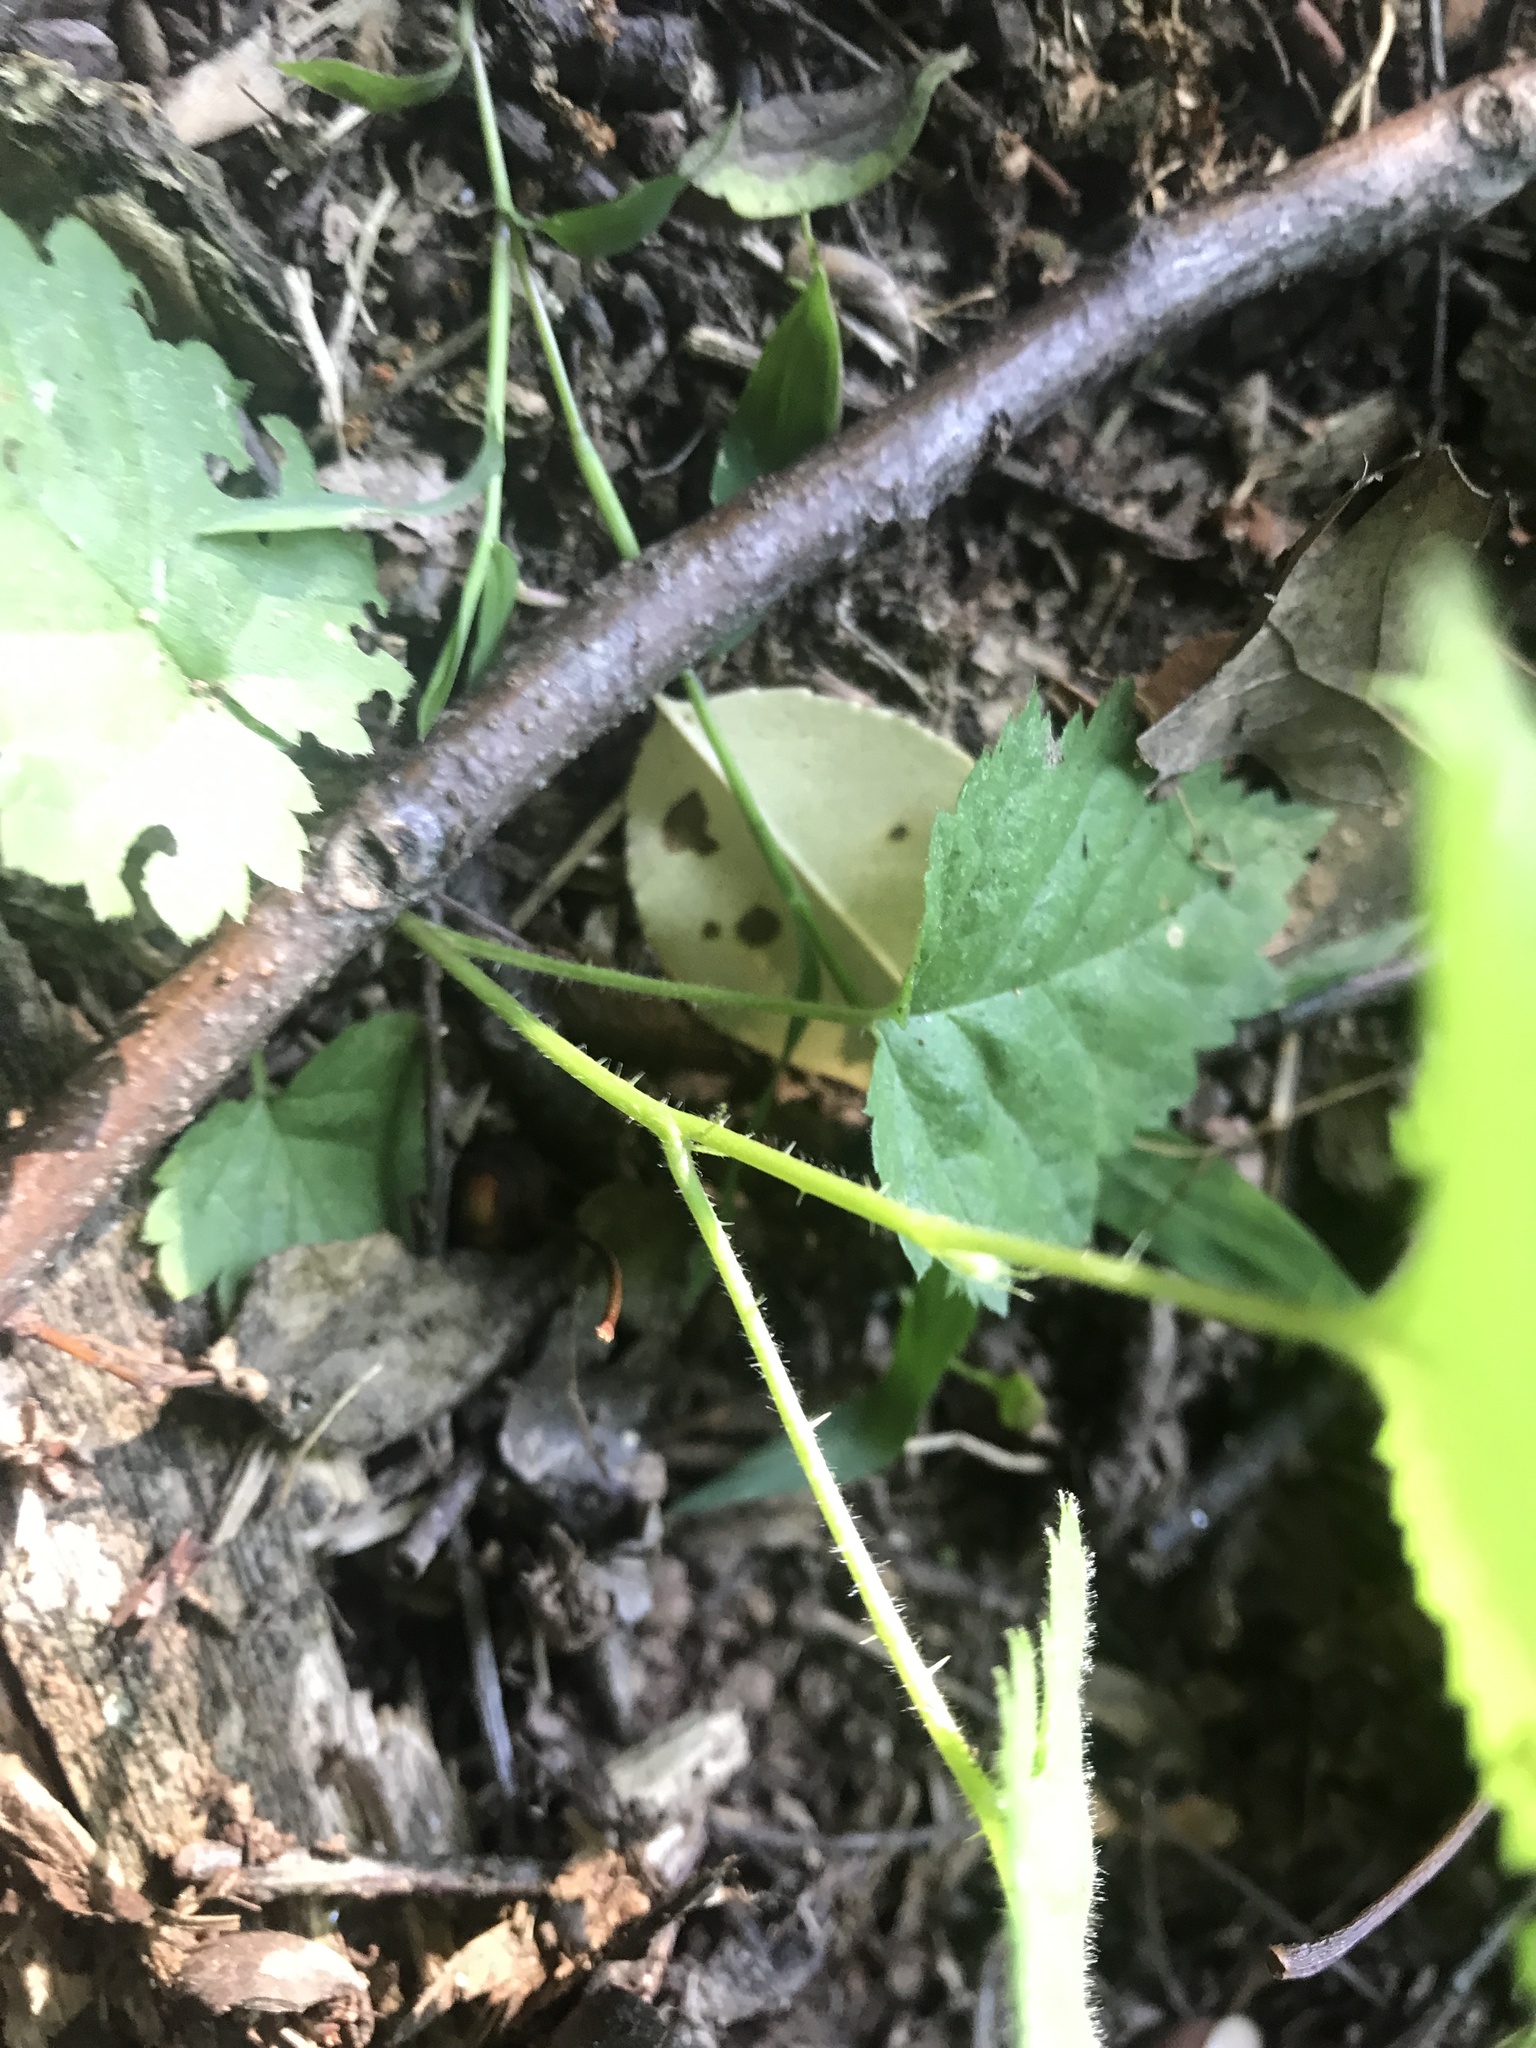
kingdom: Plantae
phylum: Tracheophyta
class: Magnoliopsida
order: Rosales
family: Rosaceae
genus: Rubus
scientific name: Rubus phoenicolasius
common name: Japanese wineberry
